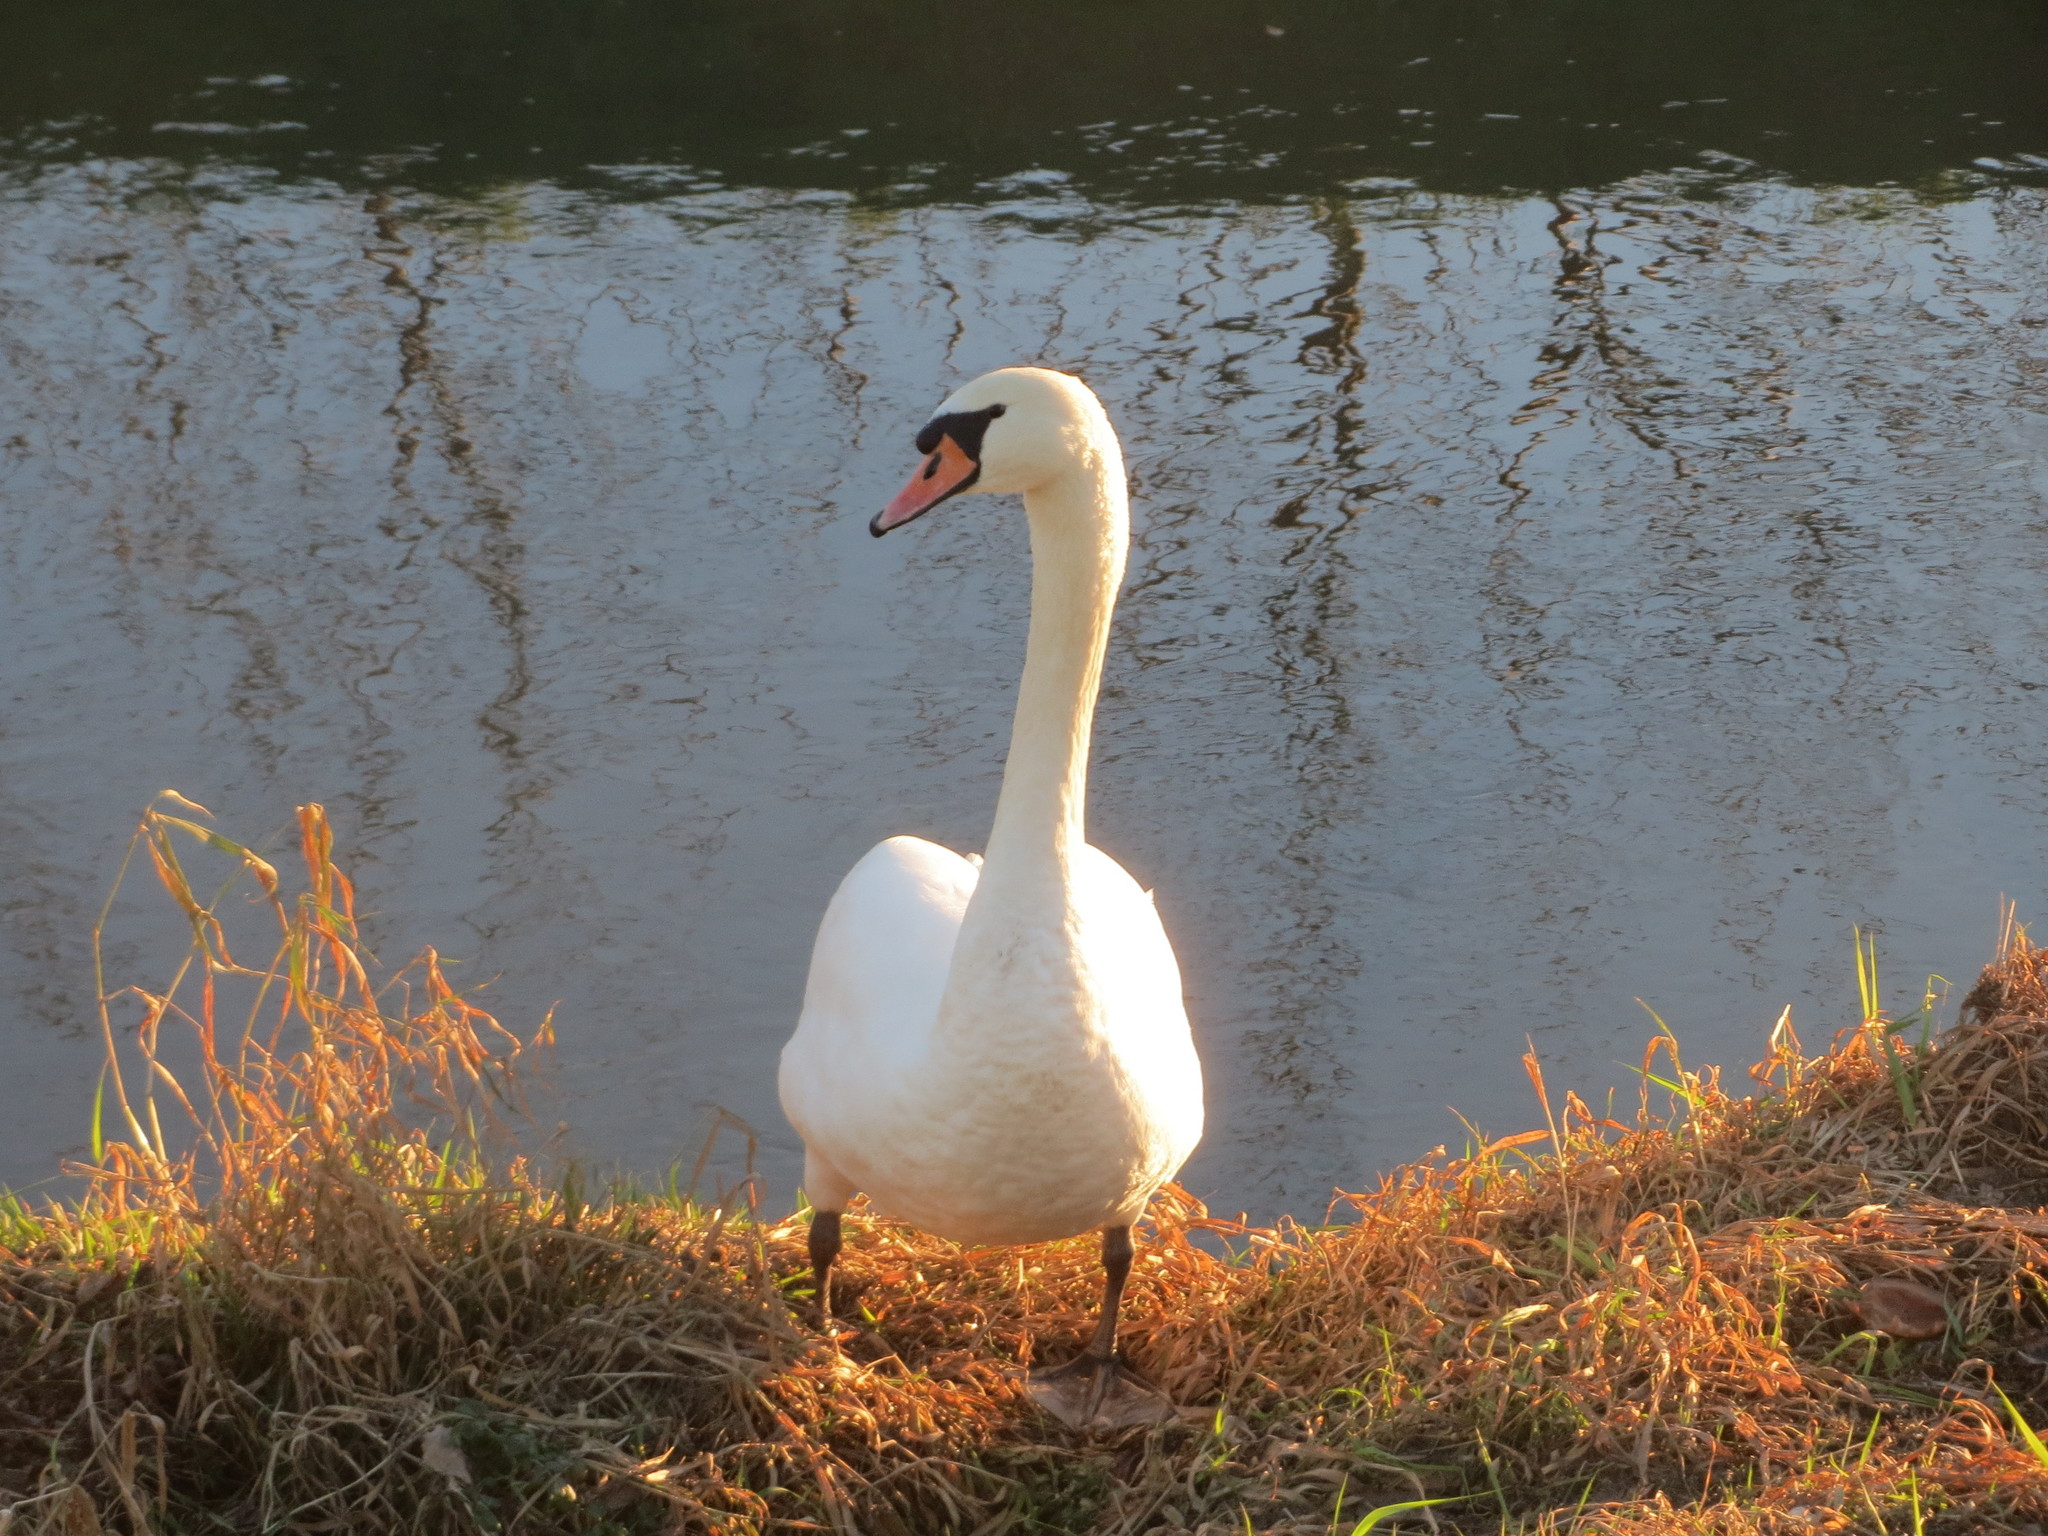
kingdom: Animalia
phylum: Chordata
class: Aves
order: Anseriformes
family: Anatidae
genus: Cygnus
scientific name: Cygnus olor
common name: Mute swan
